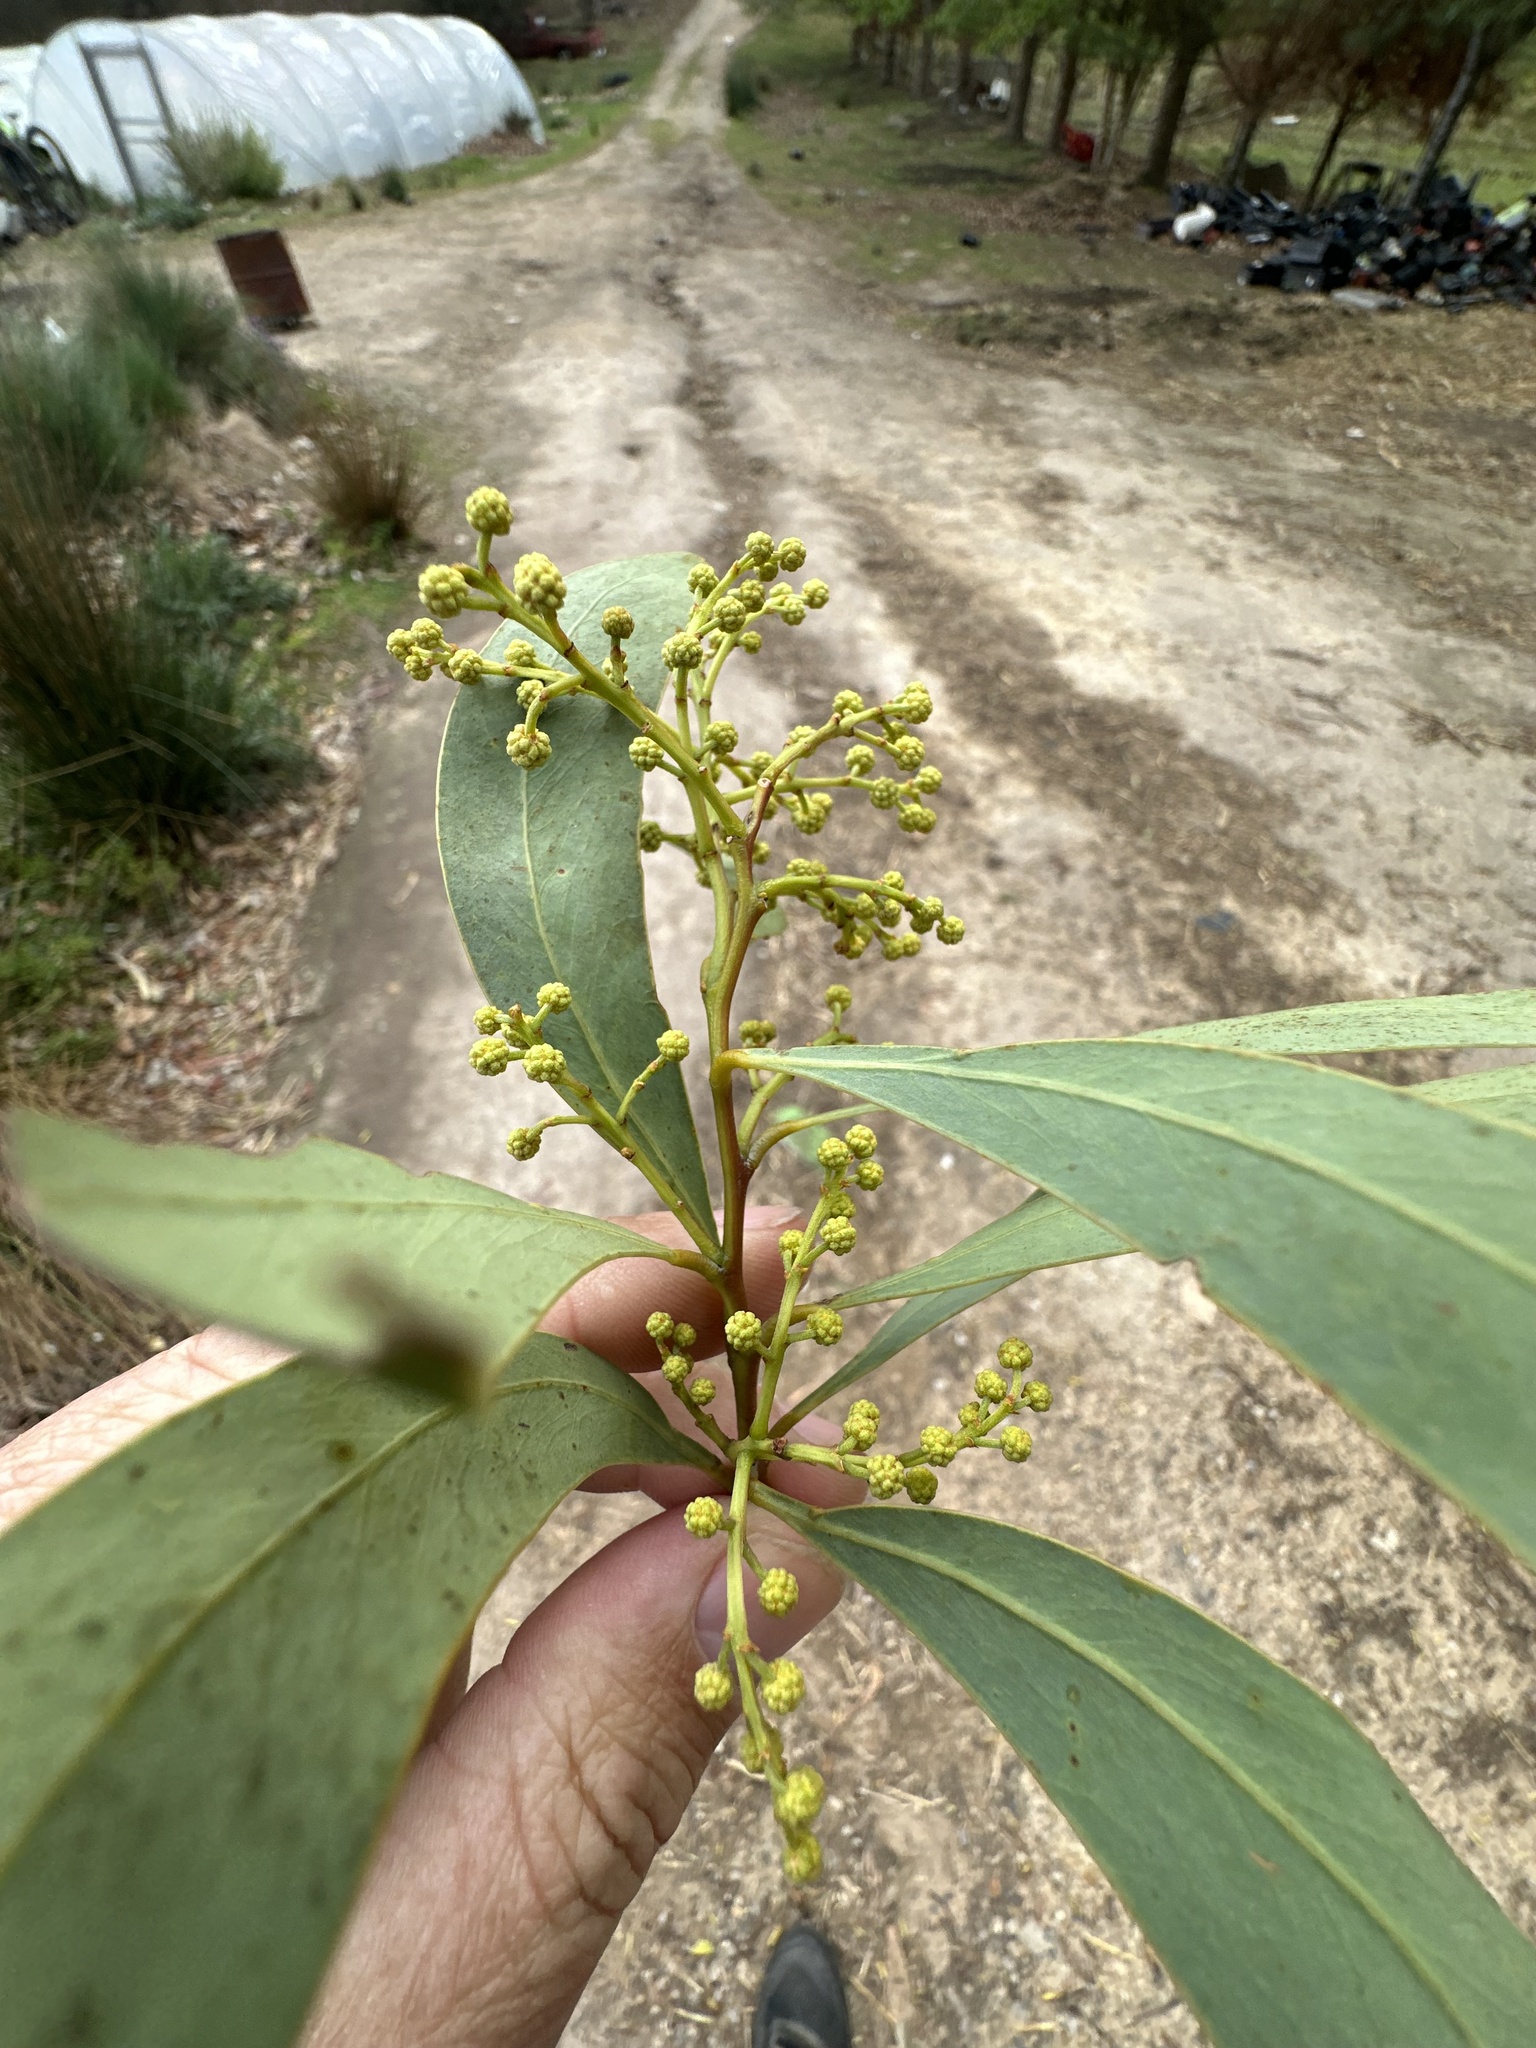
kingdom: Plantae
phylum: Tracheophyta
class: Magnoliopsida
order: Fabales
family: Fabaceae
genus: Acacia
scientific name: Acacia falciformis
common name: Tanning wattle
